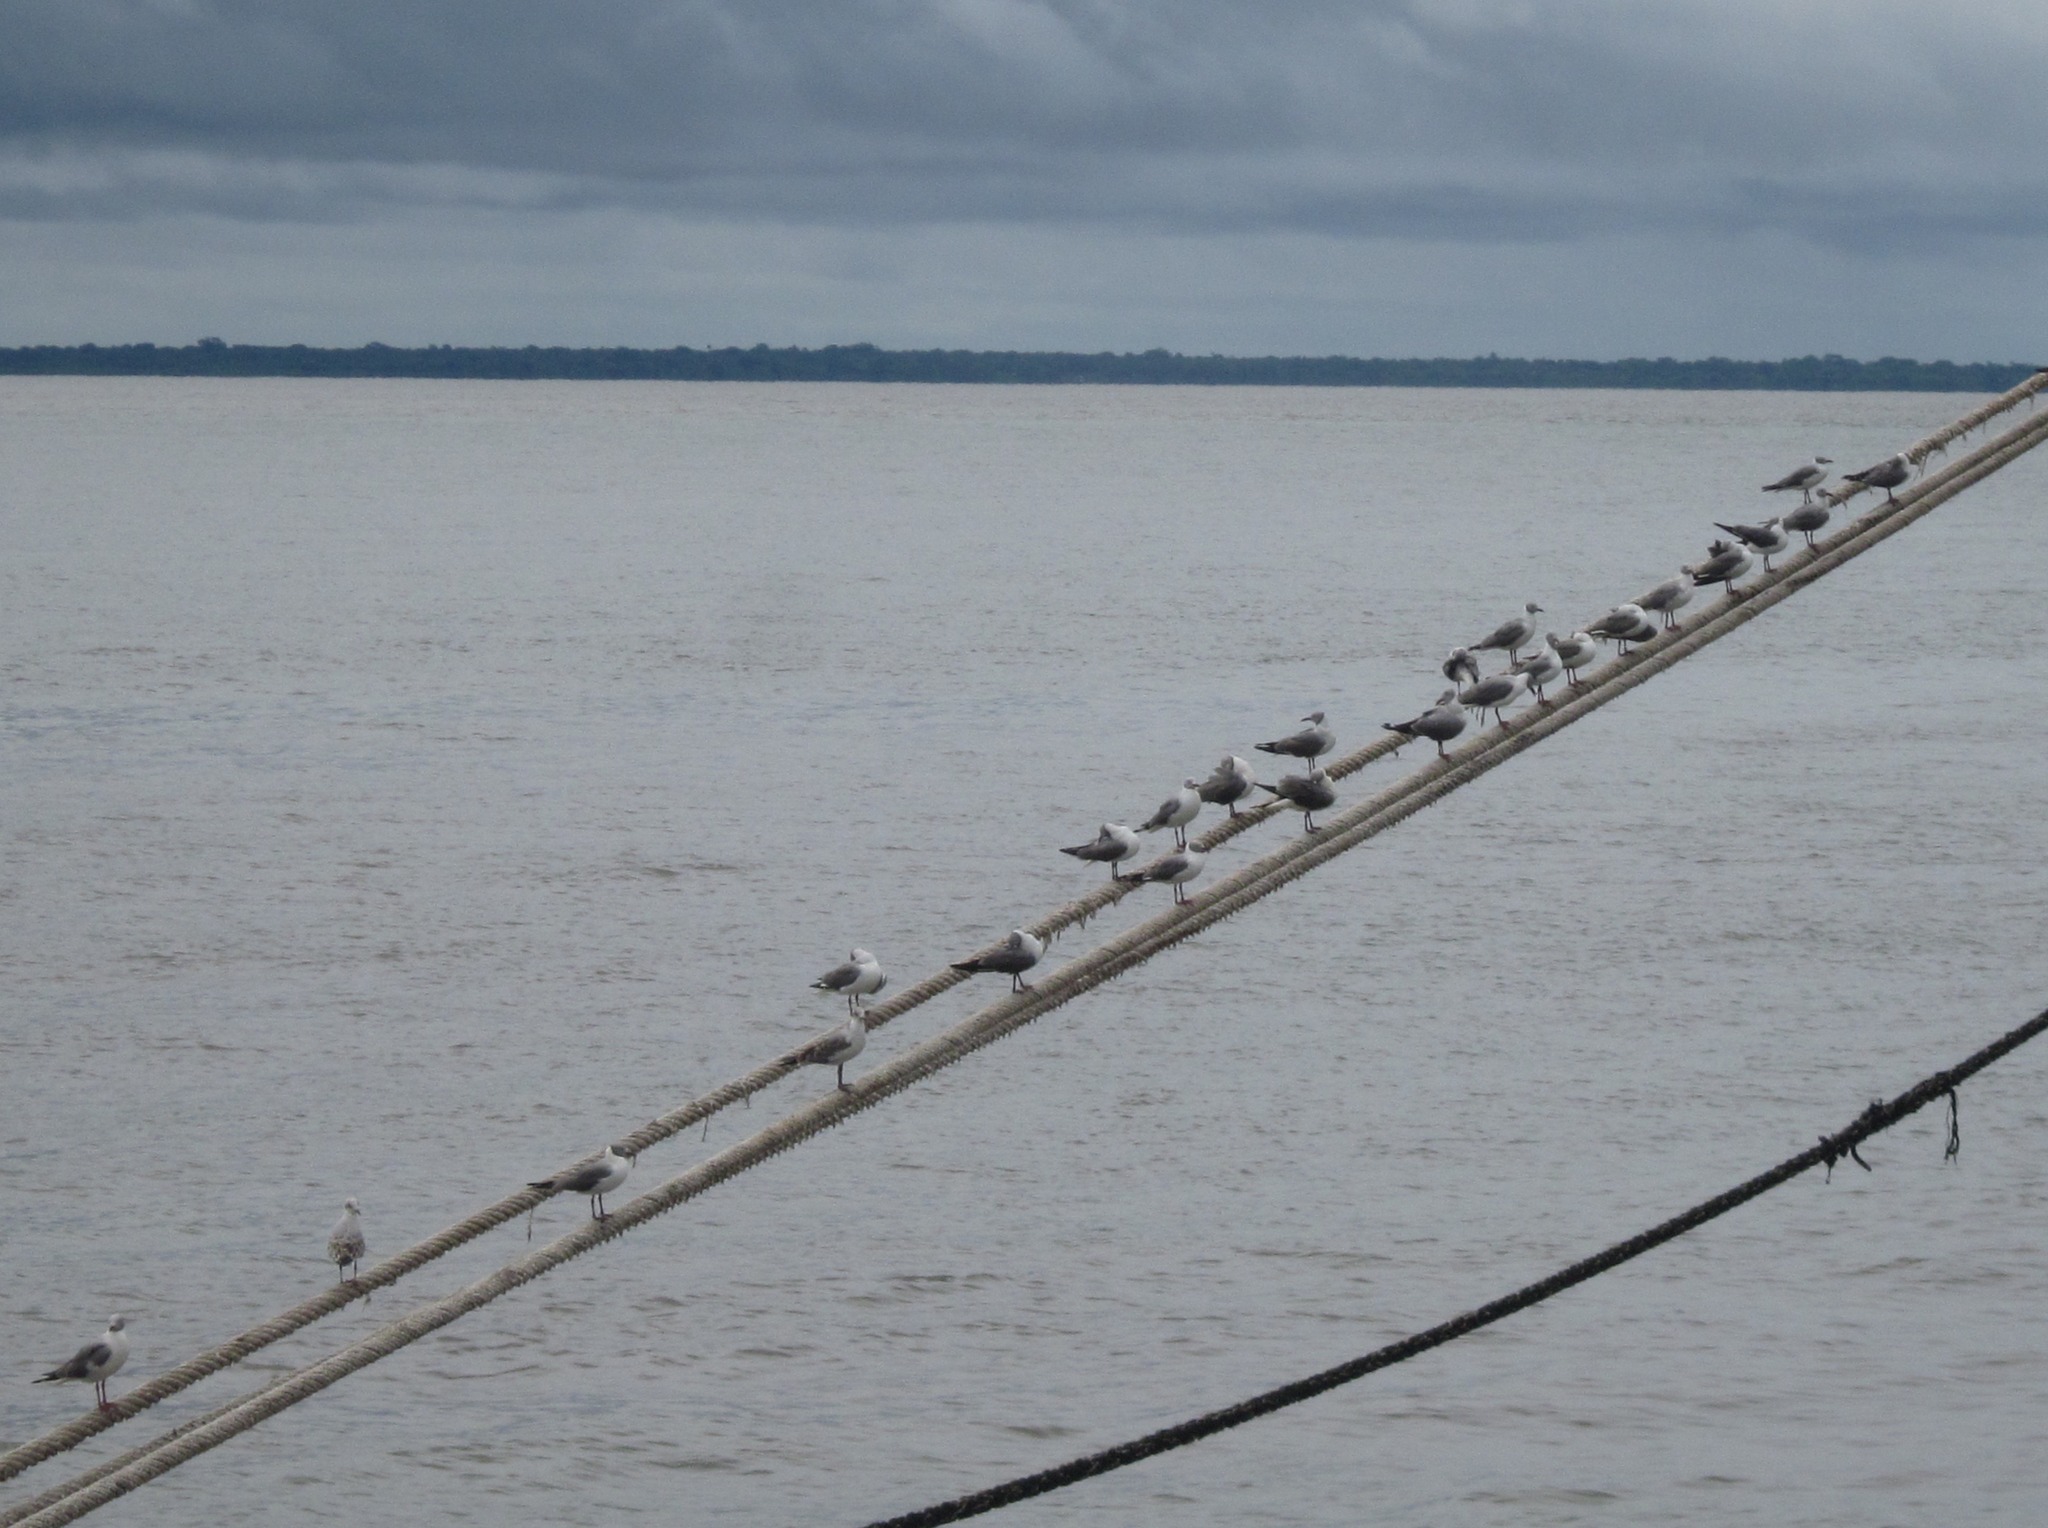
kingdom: Animalia
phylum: Chordata
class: Aves
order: Charadriiformes
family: Laridae
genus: Chroicocephalus
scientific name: Chroicocephalus cirrocephalus
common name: Grey-headed gull
